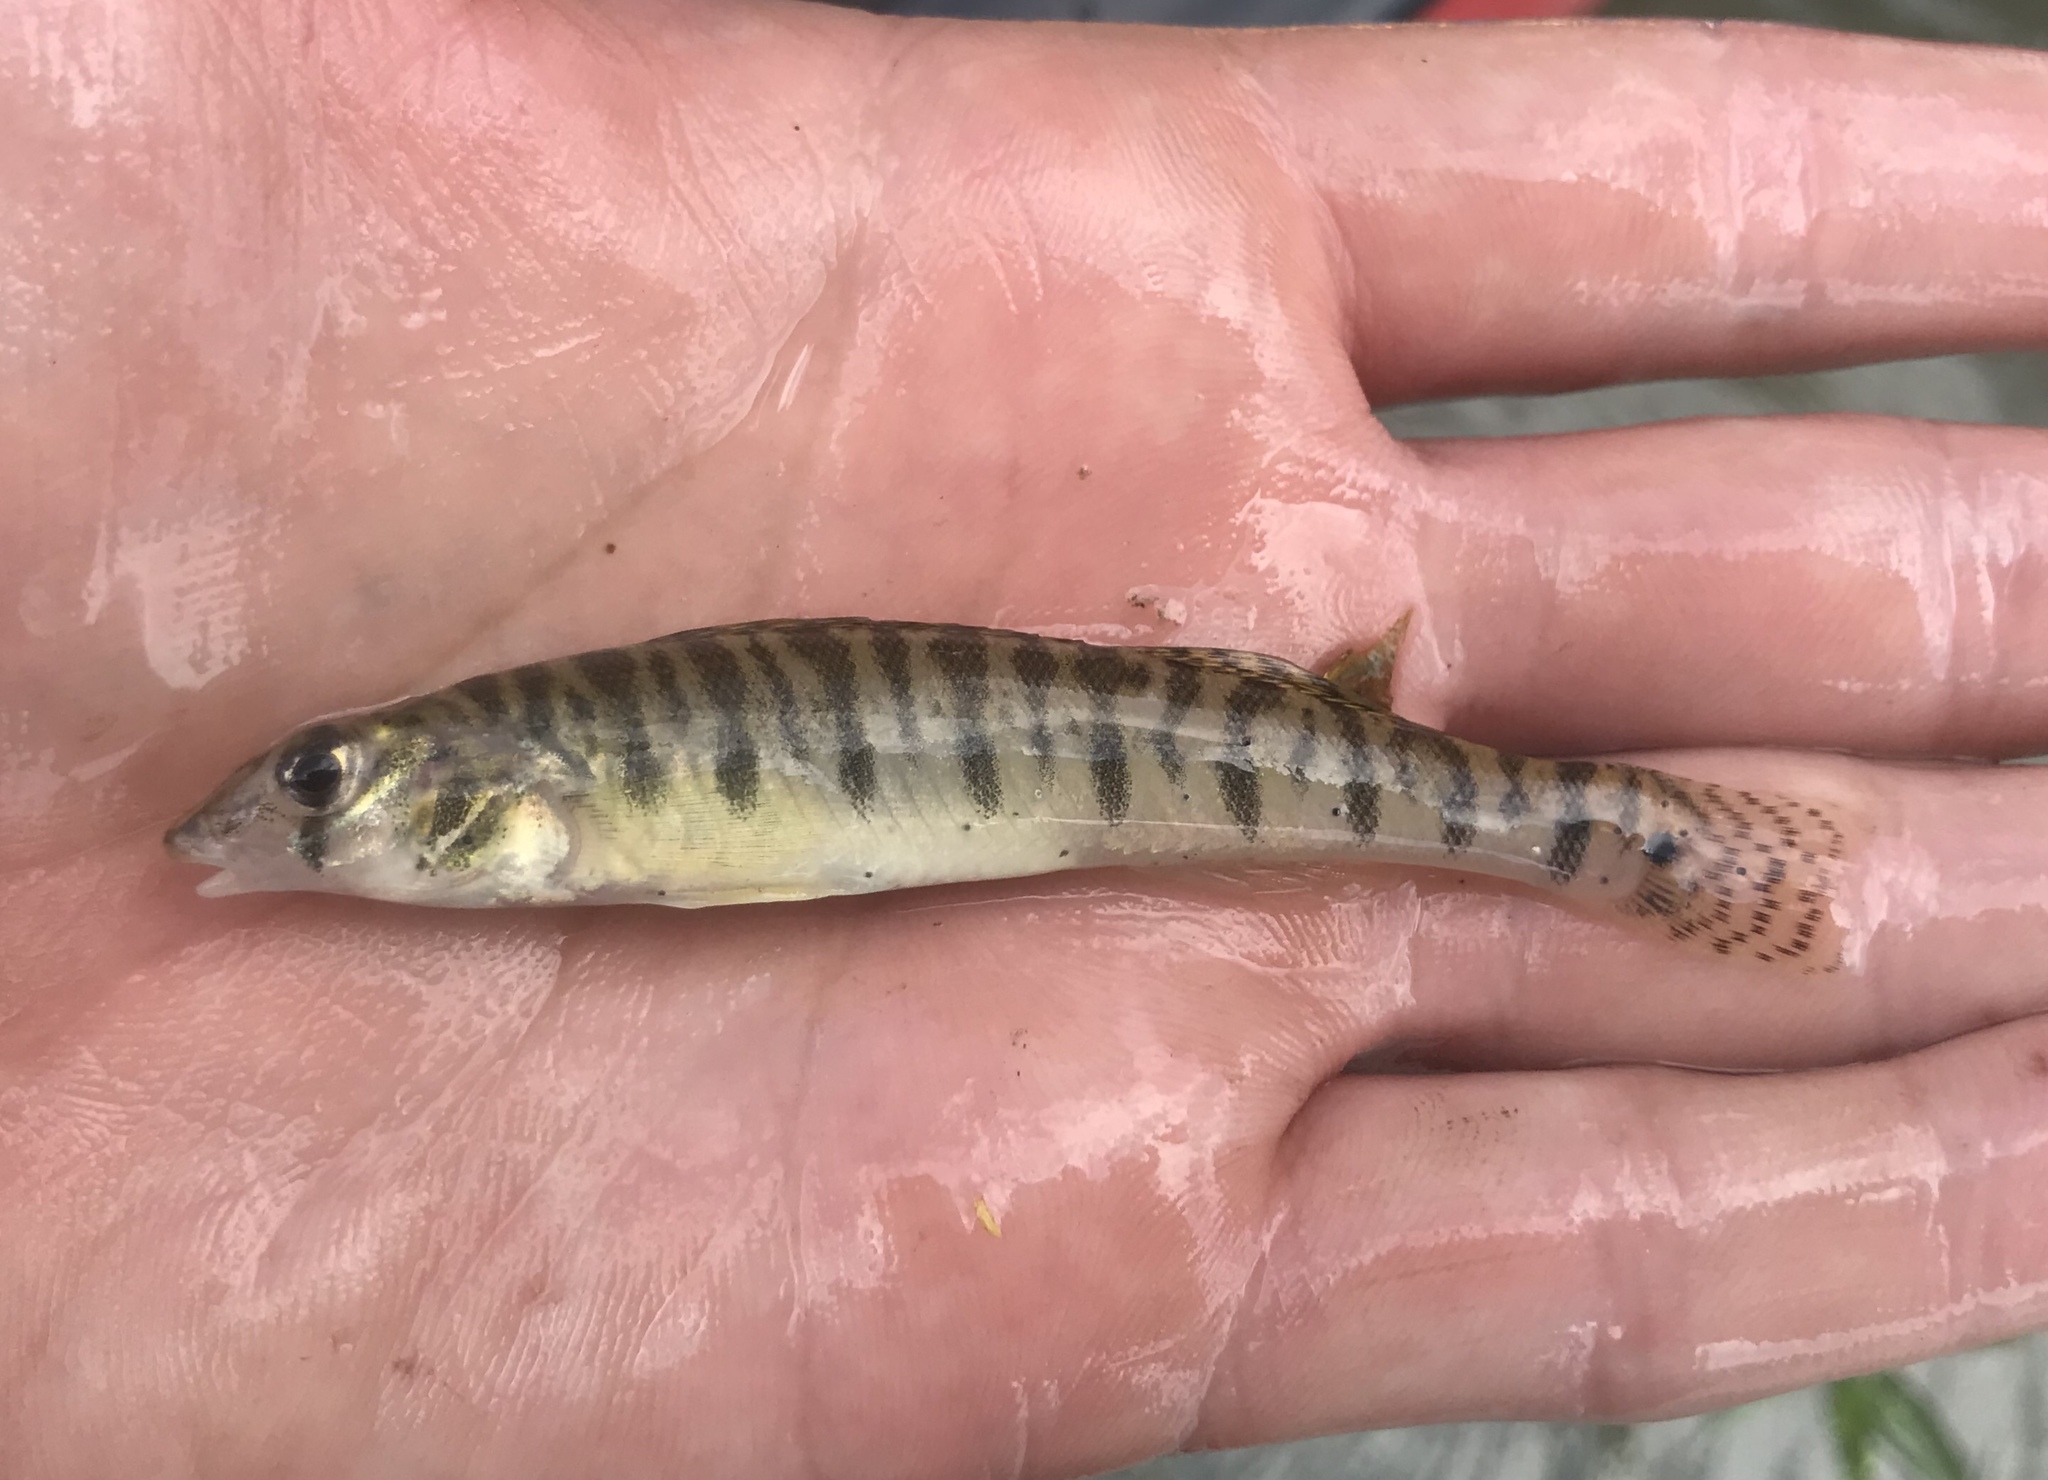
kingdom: Animalia
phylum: Chordata
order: Perciformes
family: Percidae
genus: Percina
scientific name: Percina carbonaria
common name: Texas logperch
